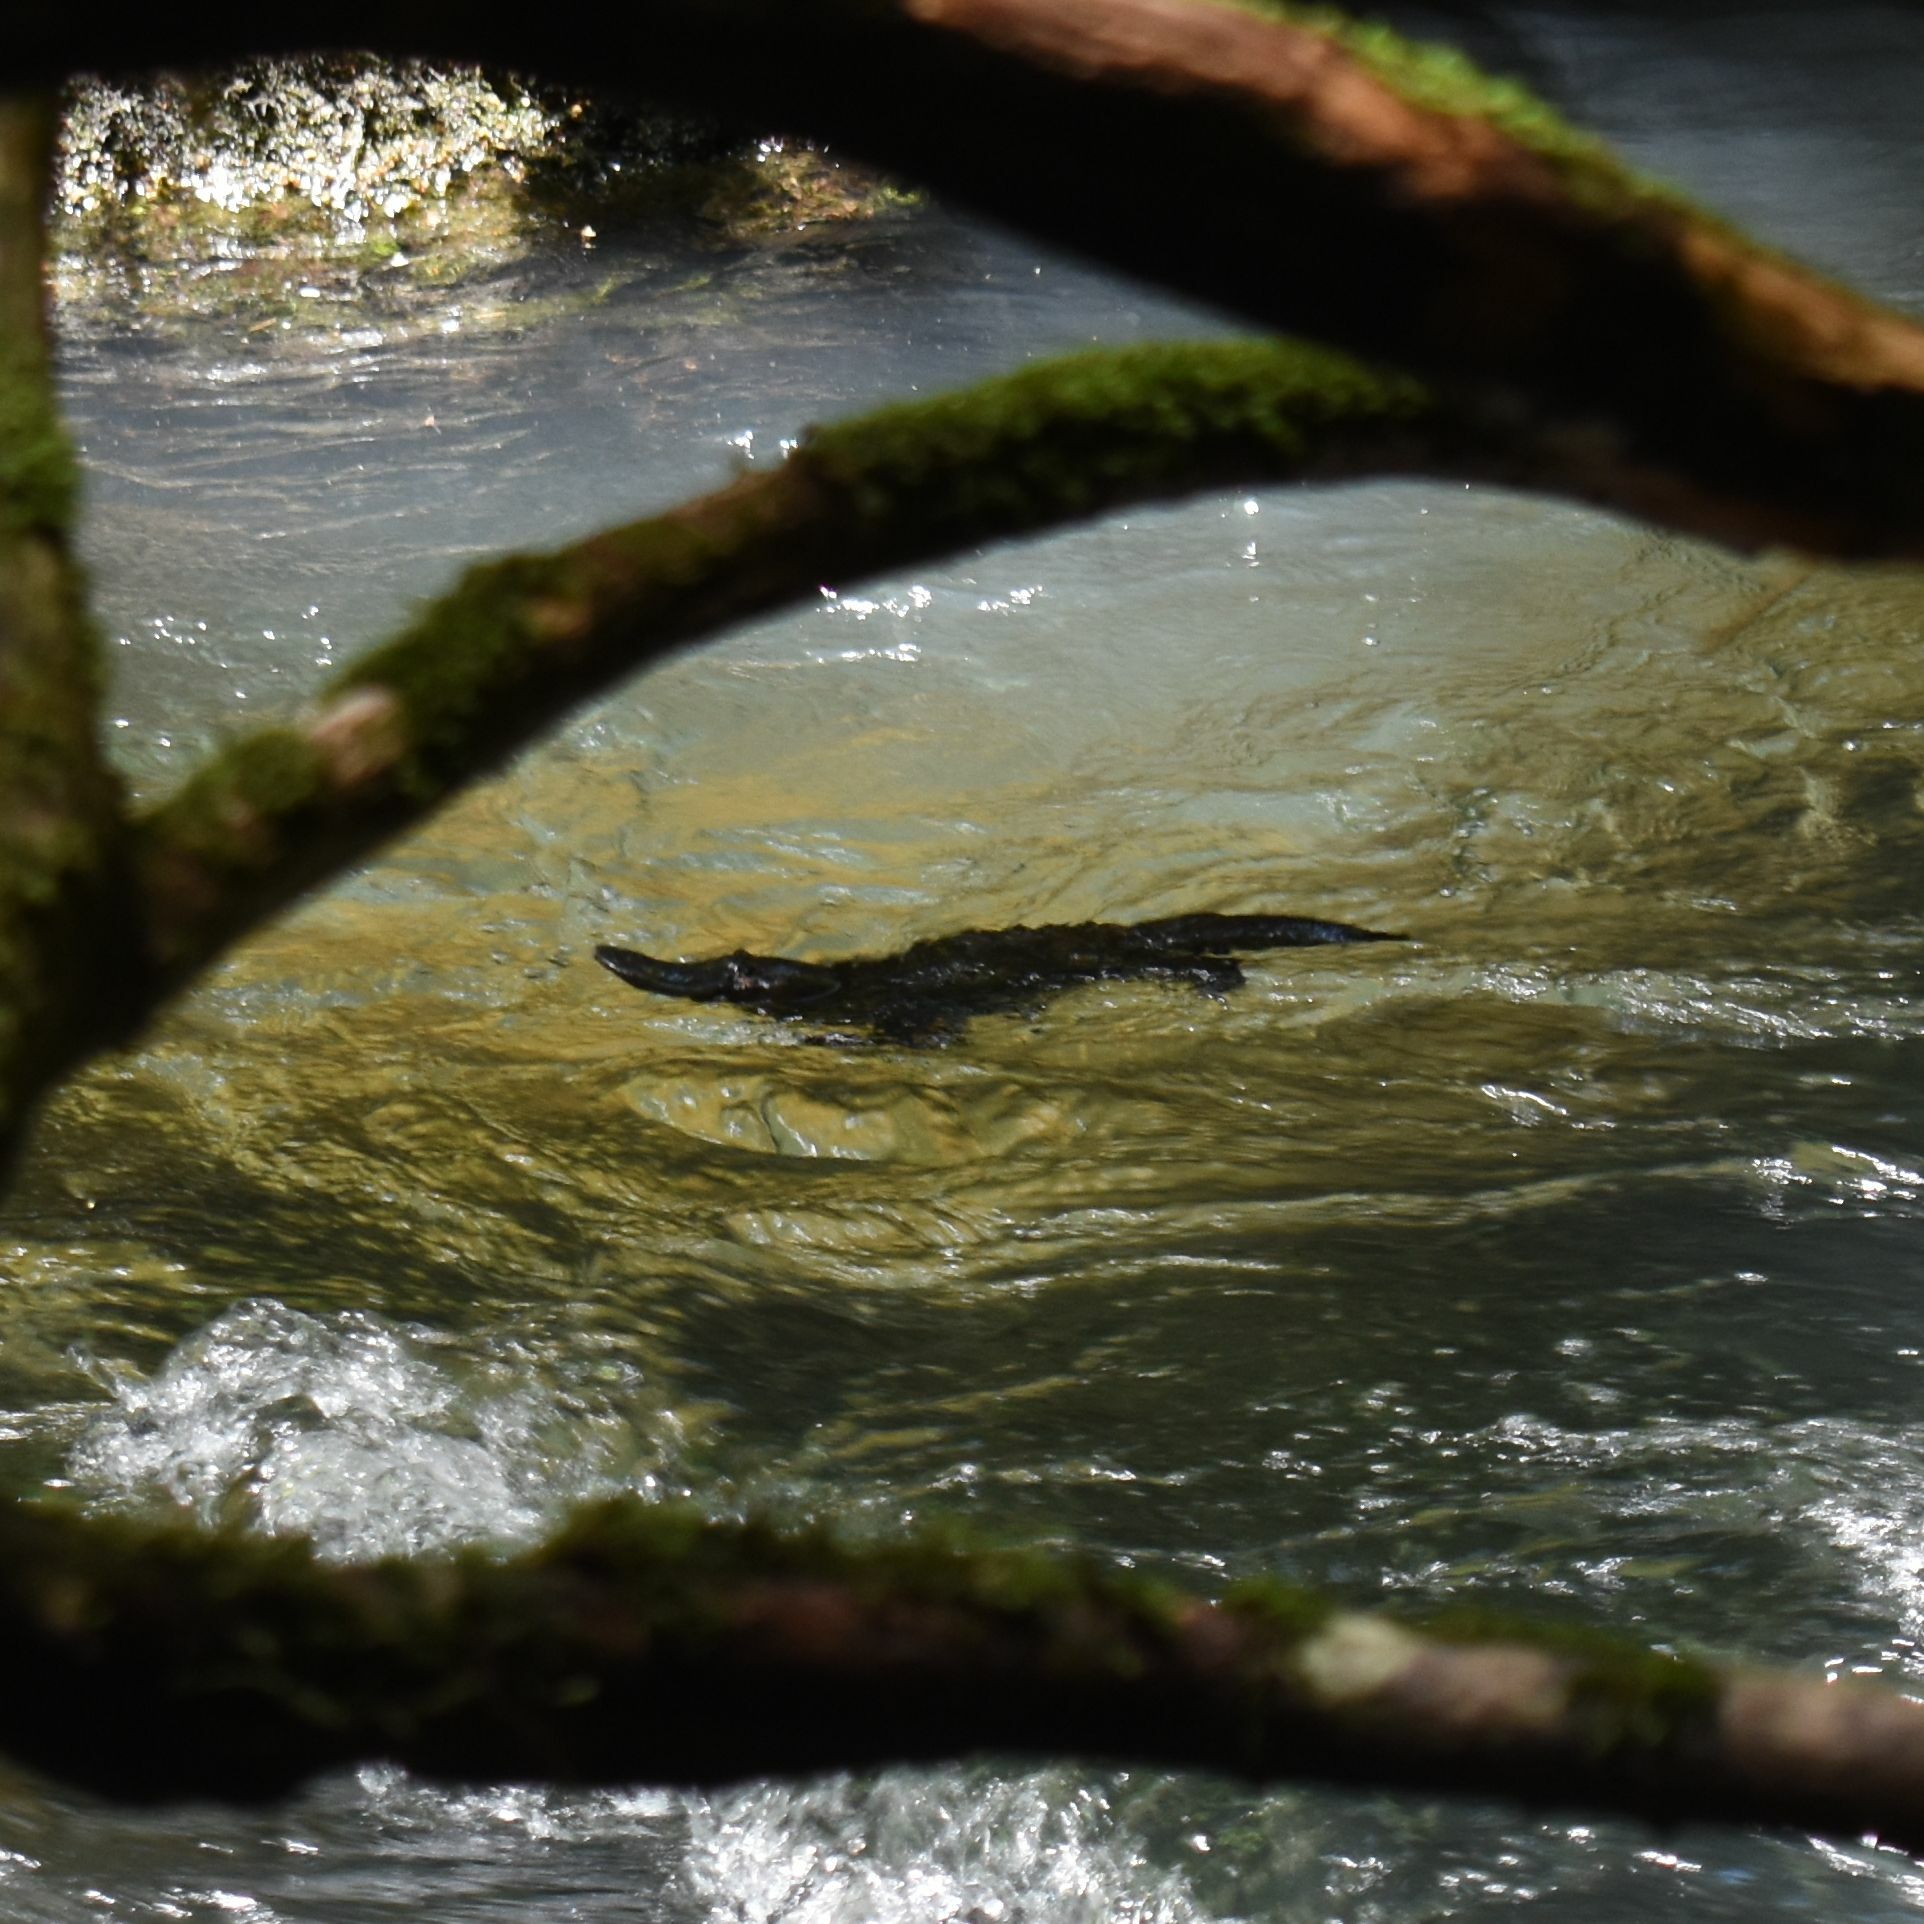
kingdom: Animalia
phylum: Chordata
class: Mammalia
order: Monotremata
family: Ornithorhynchidae
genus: Ornithorhynchus
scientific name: Ornithorhynchus anatinus
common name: Platypus
